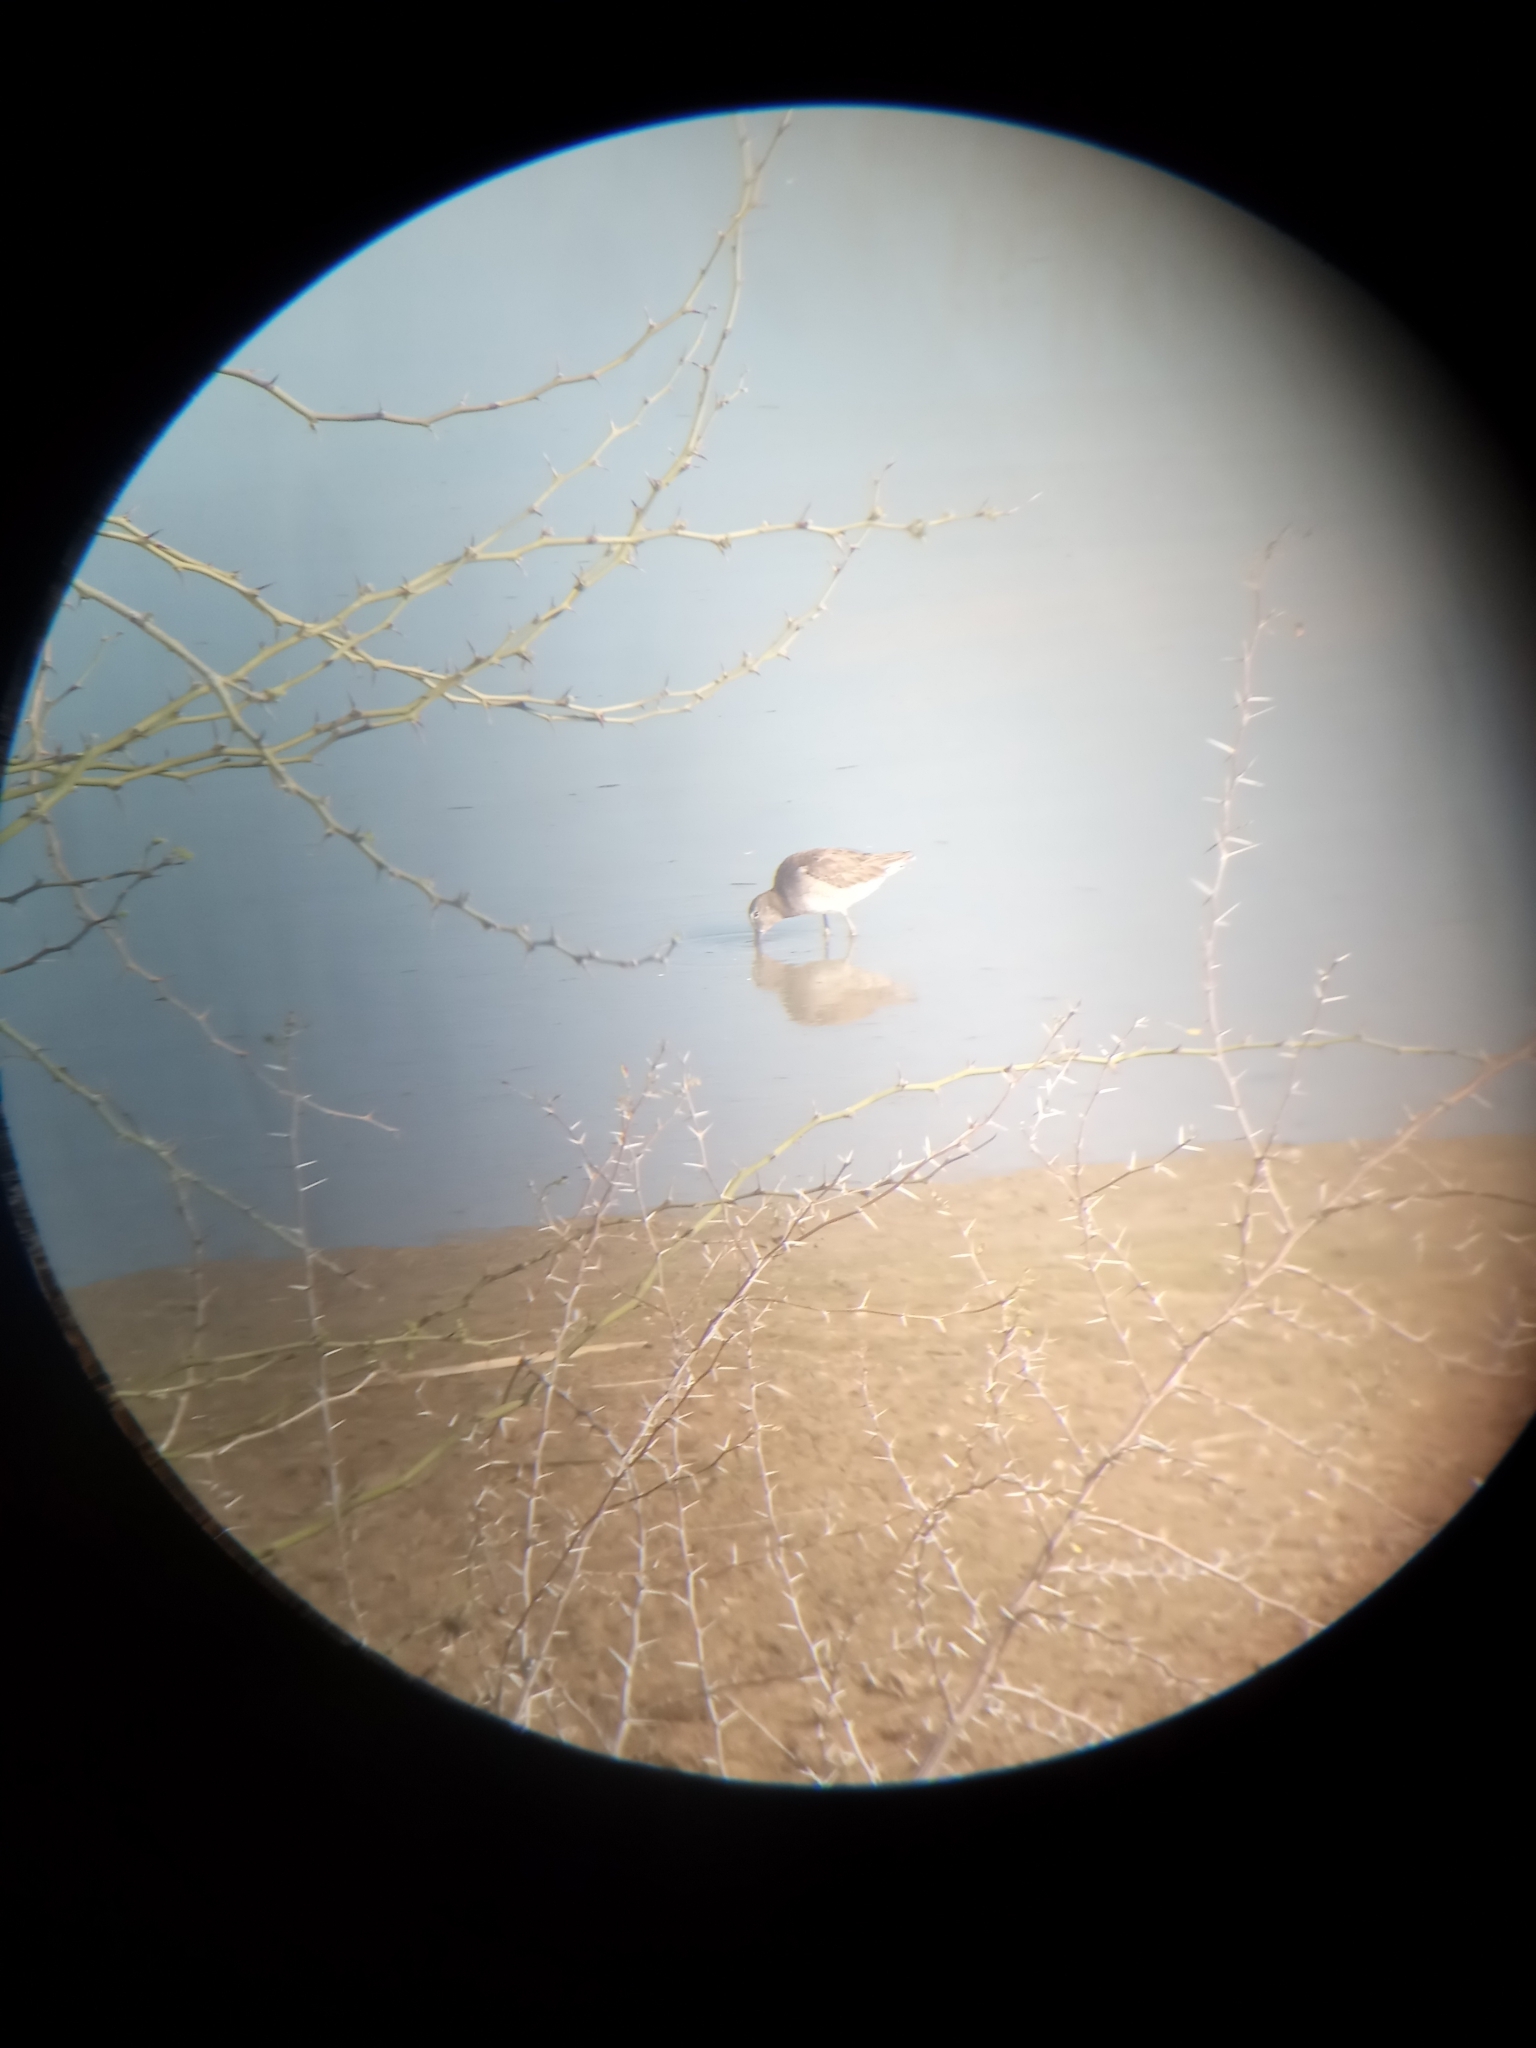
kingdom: Animalia
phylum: Chordata
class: Aves
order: Charadriiformes
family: Scolopacidae
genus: Limnodromus
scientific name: Limnodromus scolopaceus
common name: Long-billed dowitcher
